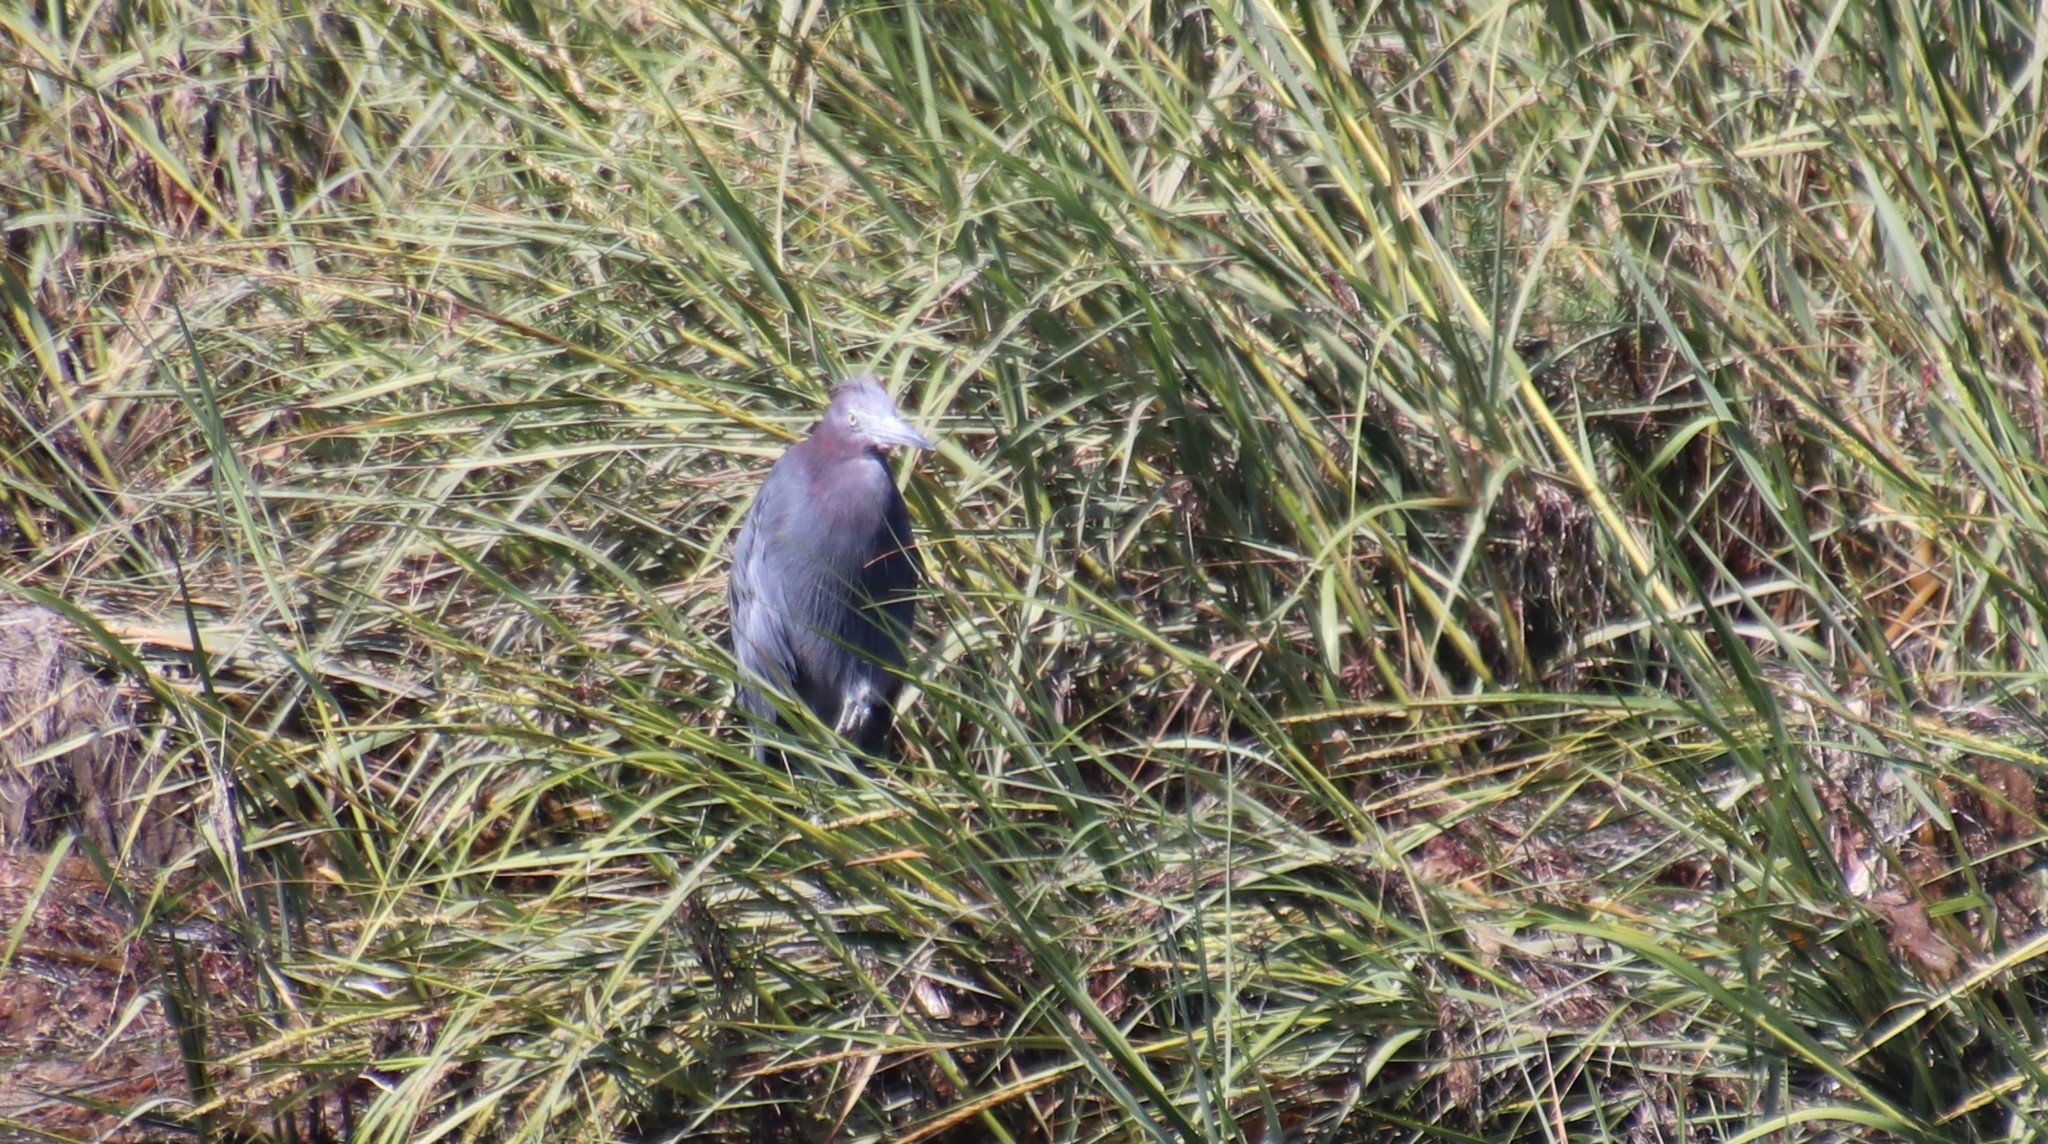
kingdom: Animalia
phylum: Chordata
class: Aves
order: Pelecaniformes
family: Ardeidae
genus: Egretta
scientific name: Egretta caerulea
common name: Little blue heron
